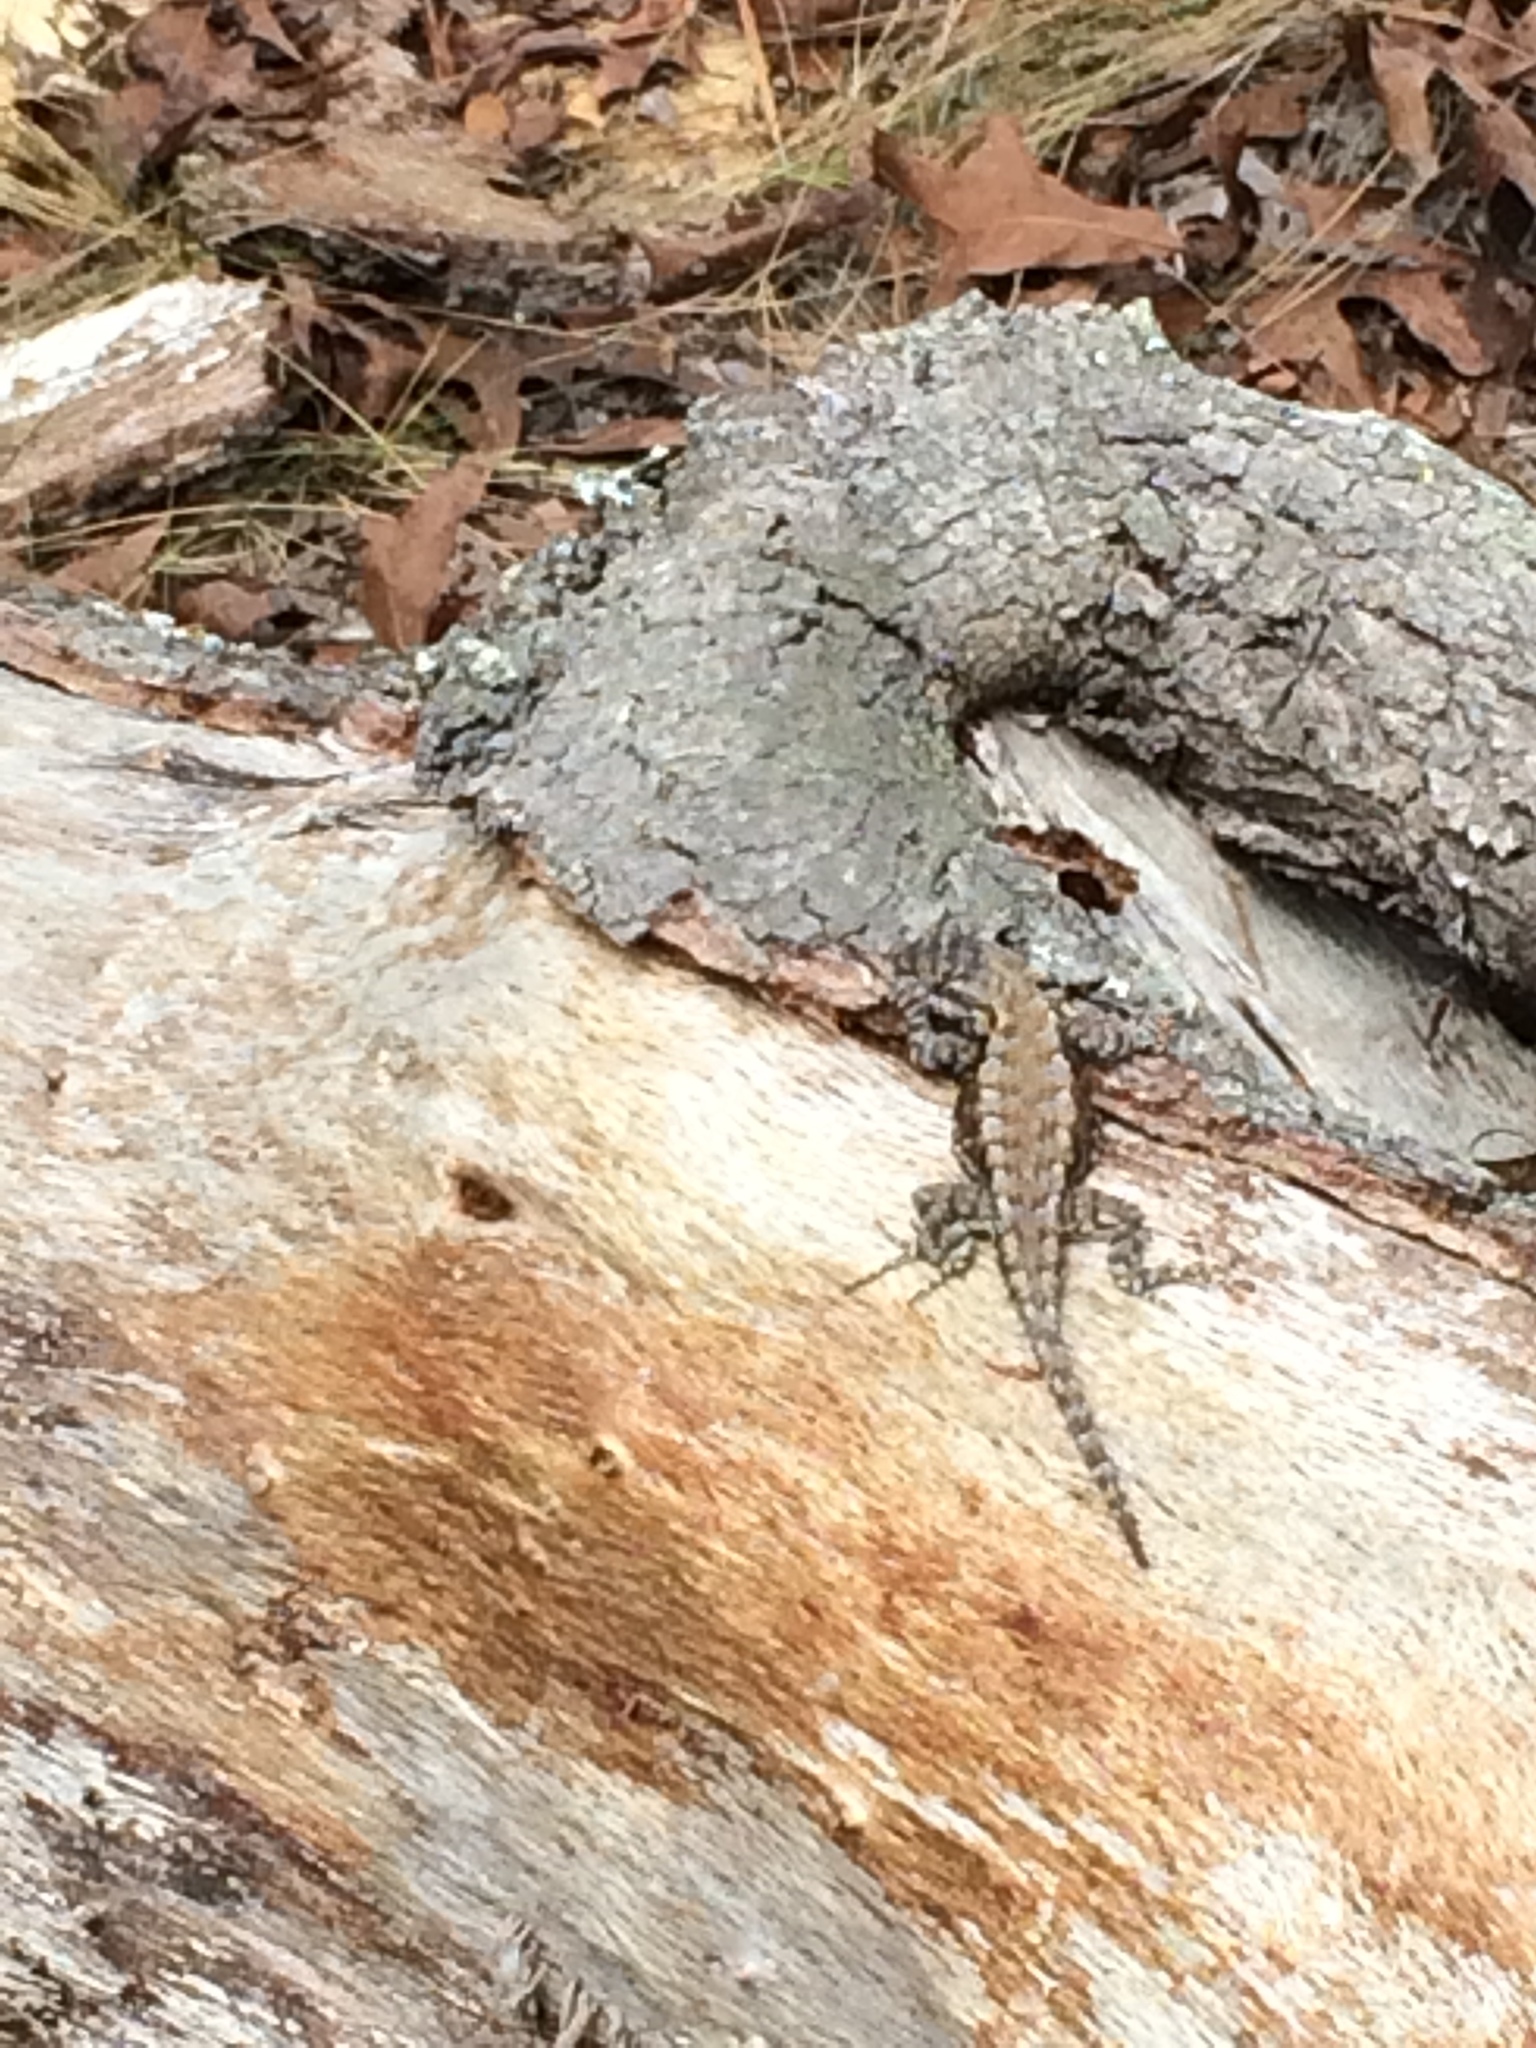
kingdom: Animalia
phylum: Chordata
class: Squamata
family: Phrynosomatidae
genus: Sceloporus
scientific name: Sceloporus undulatus
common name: Eastern fence lizard
